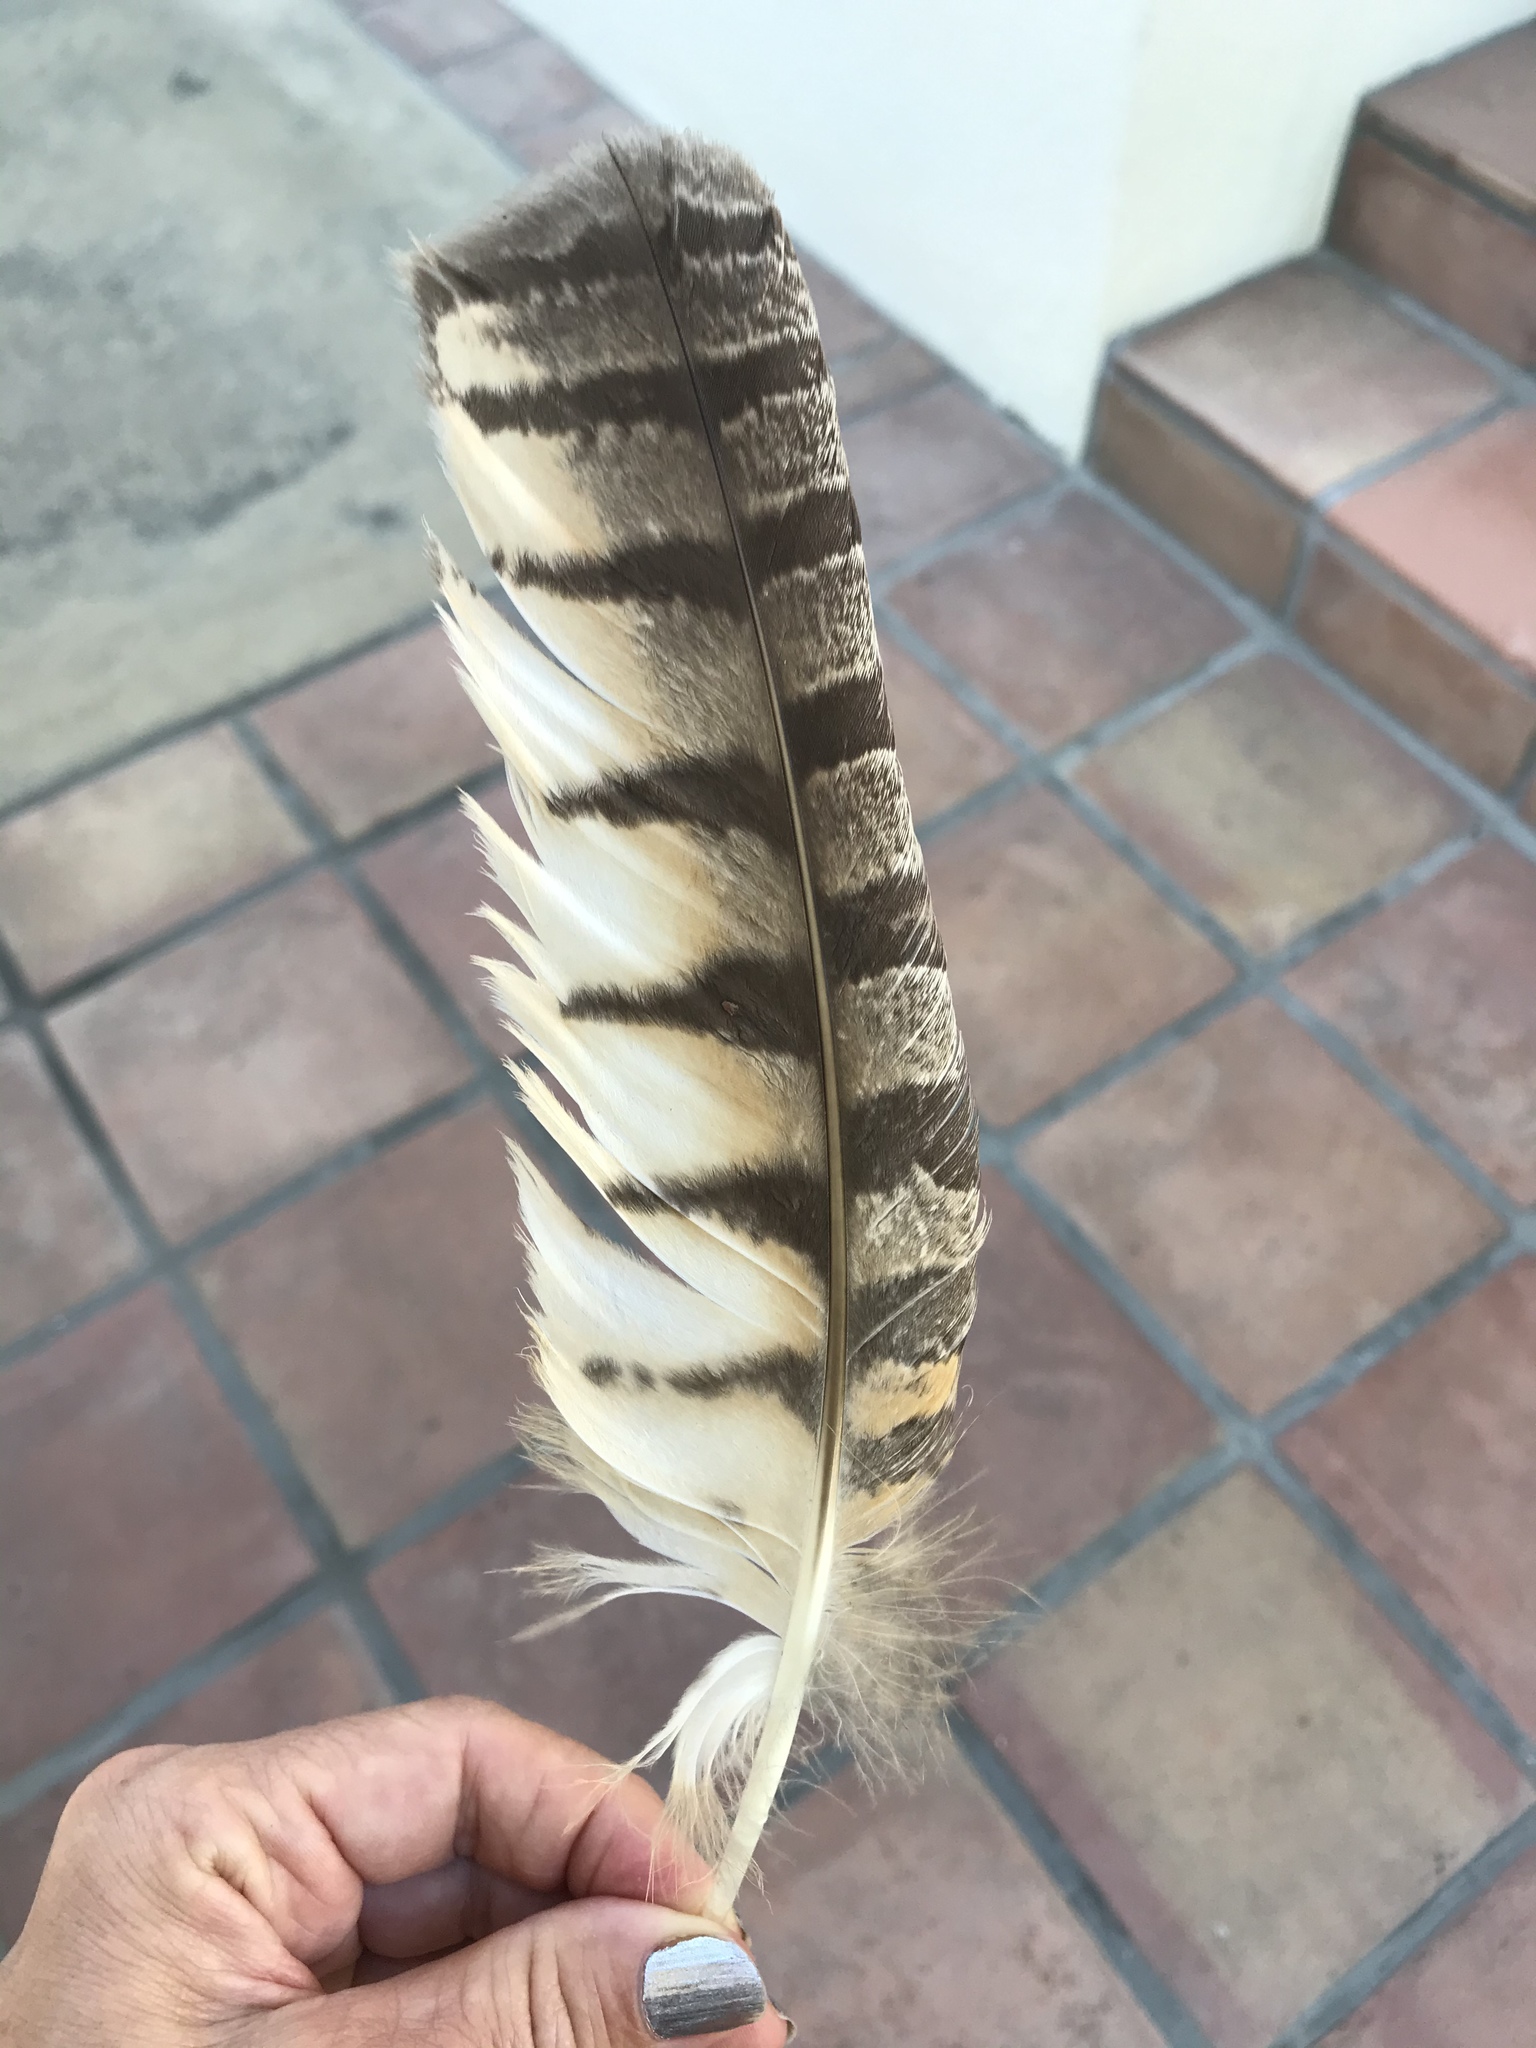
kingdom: Animalia
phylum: Chordata
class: Aves
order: Strigiformes
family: Strigidae
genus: Bubo
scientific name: Bubo virginianus
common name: Great horned owl
